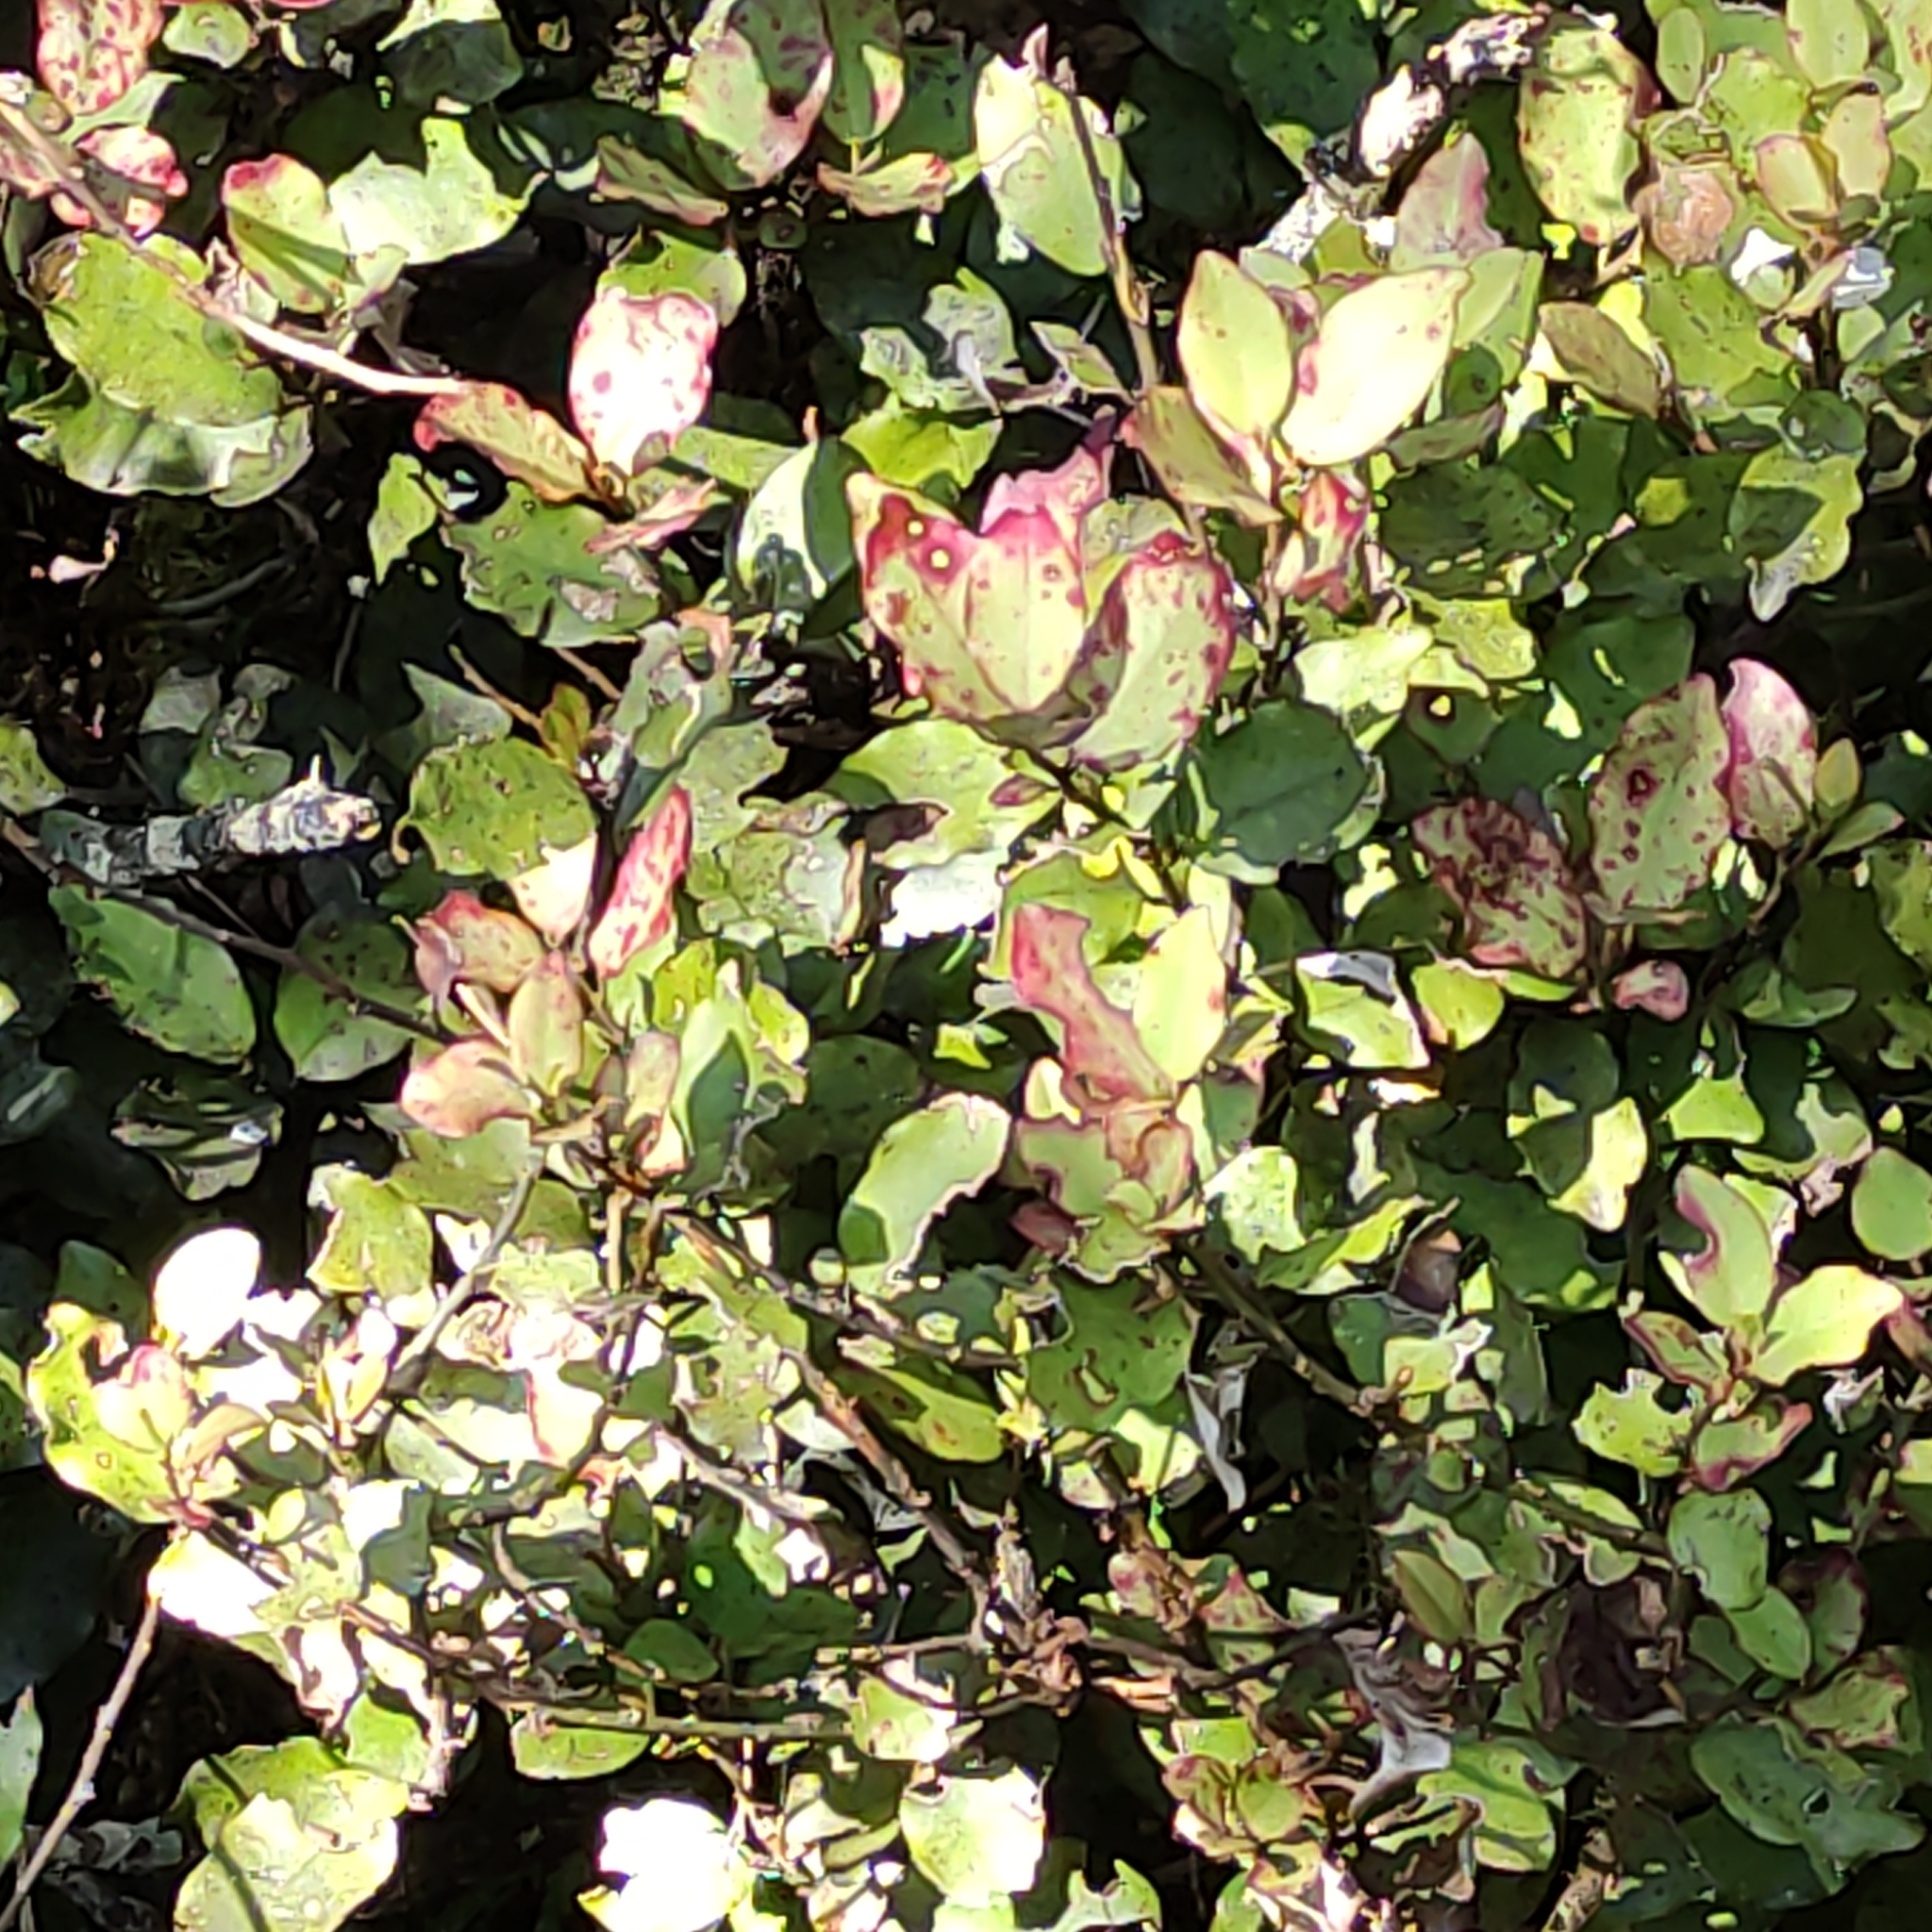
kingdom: Plantae
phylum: Tracheophyta
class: Magnoliopsida
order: Canellales
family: Winteraceae
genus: Pseudowintera
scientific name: Pseudowintera colorata
